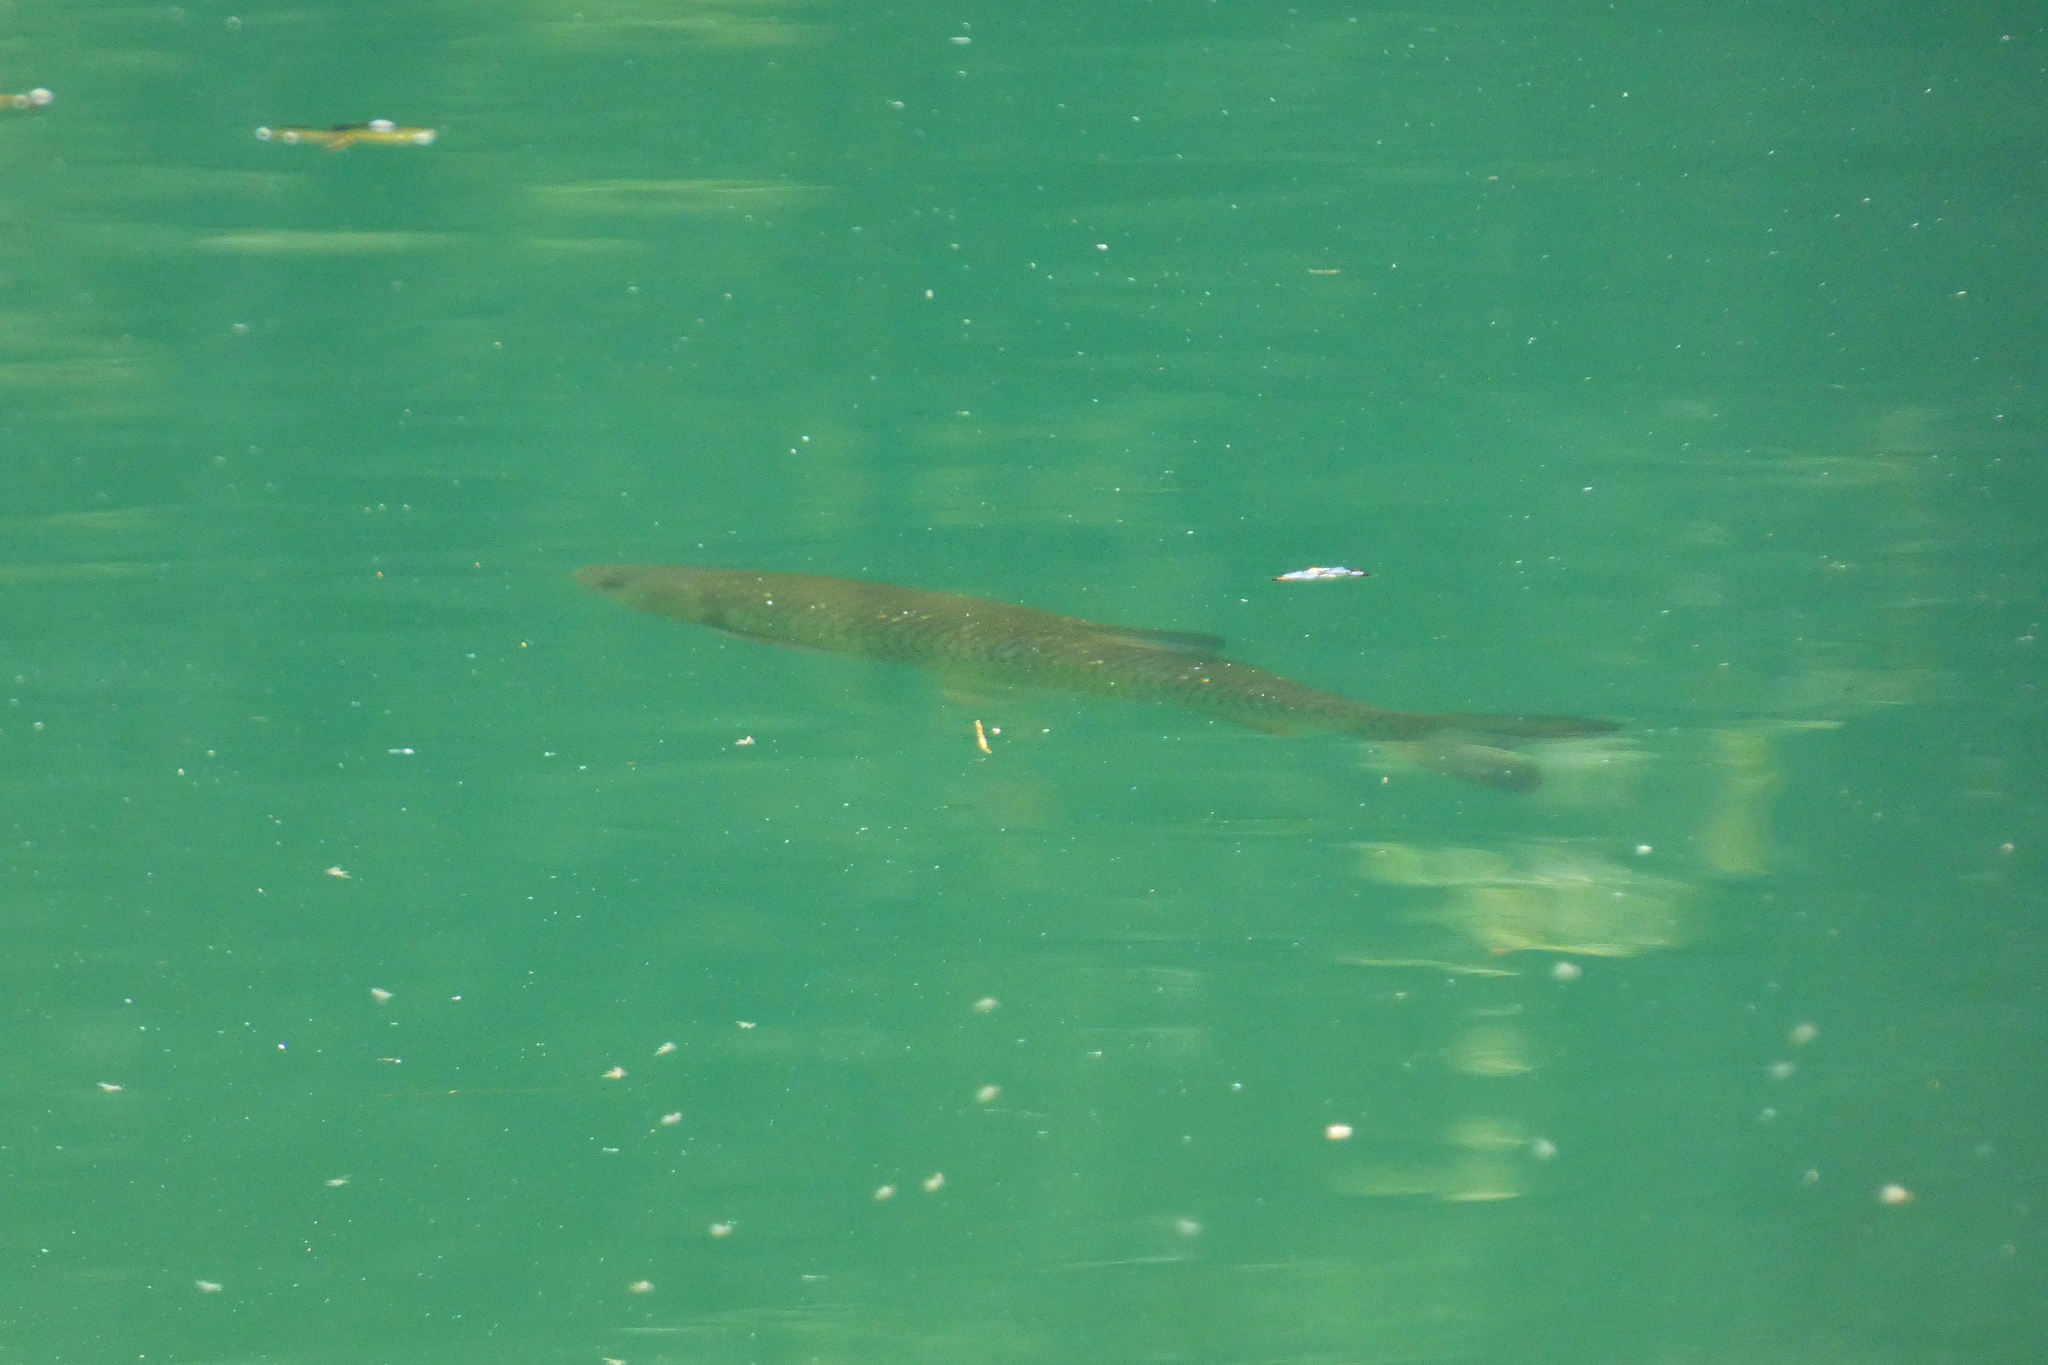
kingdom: Animalia
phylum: Chordata
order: Cypriniformes
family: Cyprinidae
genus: Squalius
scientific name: Squalius cephalus
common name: Chub
